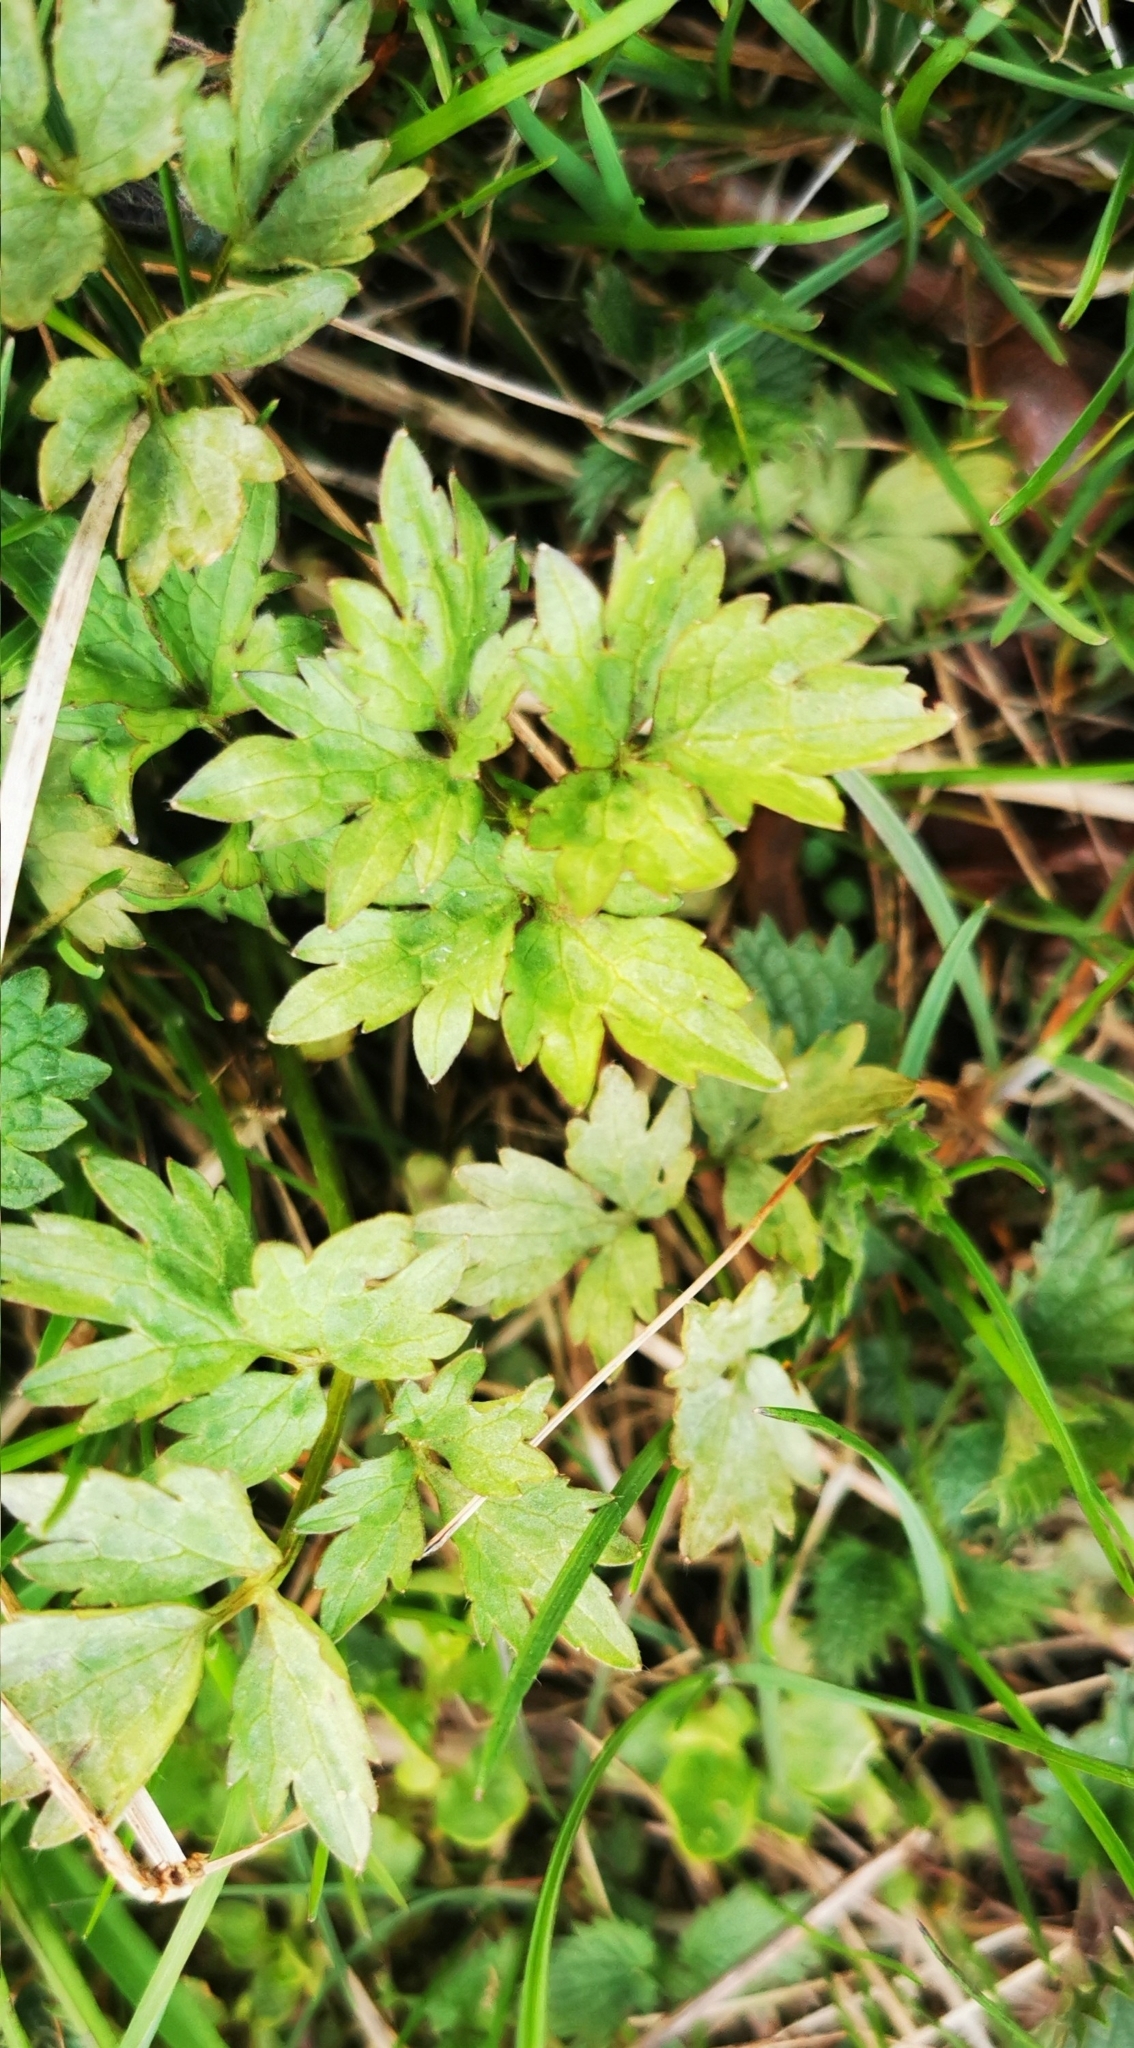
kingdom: Plantae
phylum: Tracheophyta
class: Magnoliopsida
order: Ranunculales
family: Ranunculaceae
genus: Ranunculus
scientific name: Ranunculus repens
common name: Creeping buttercup
